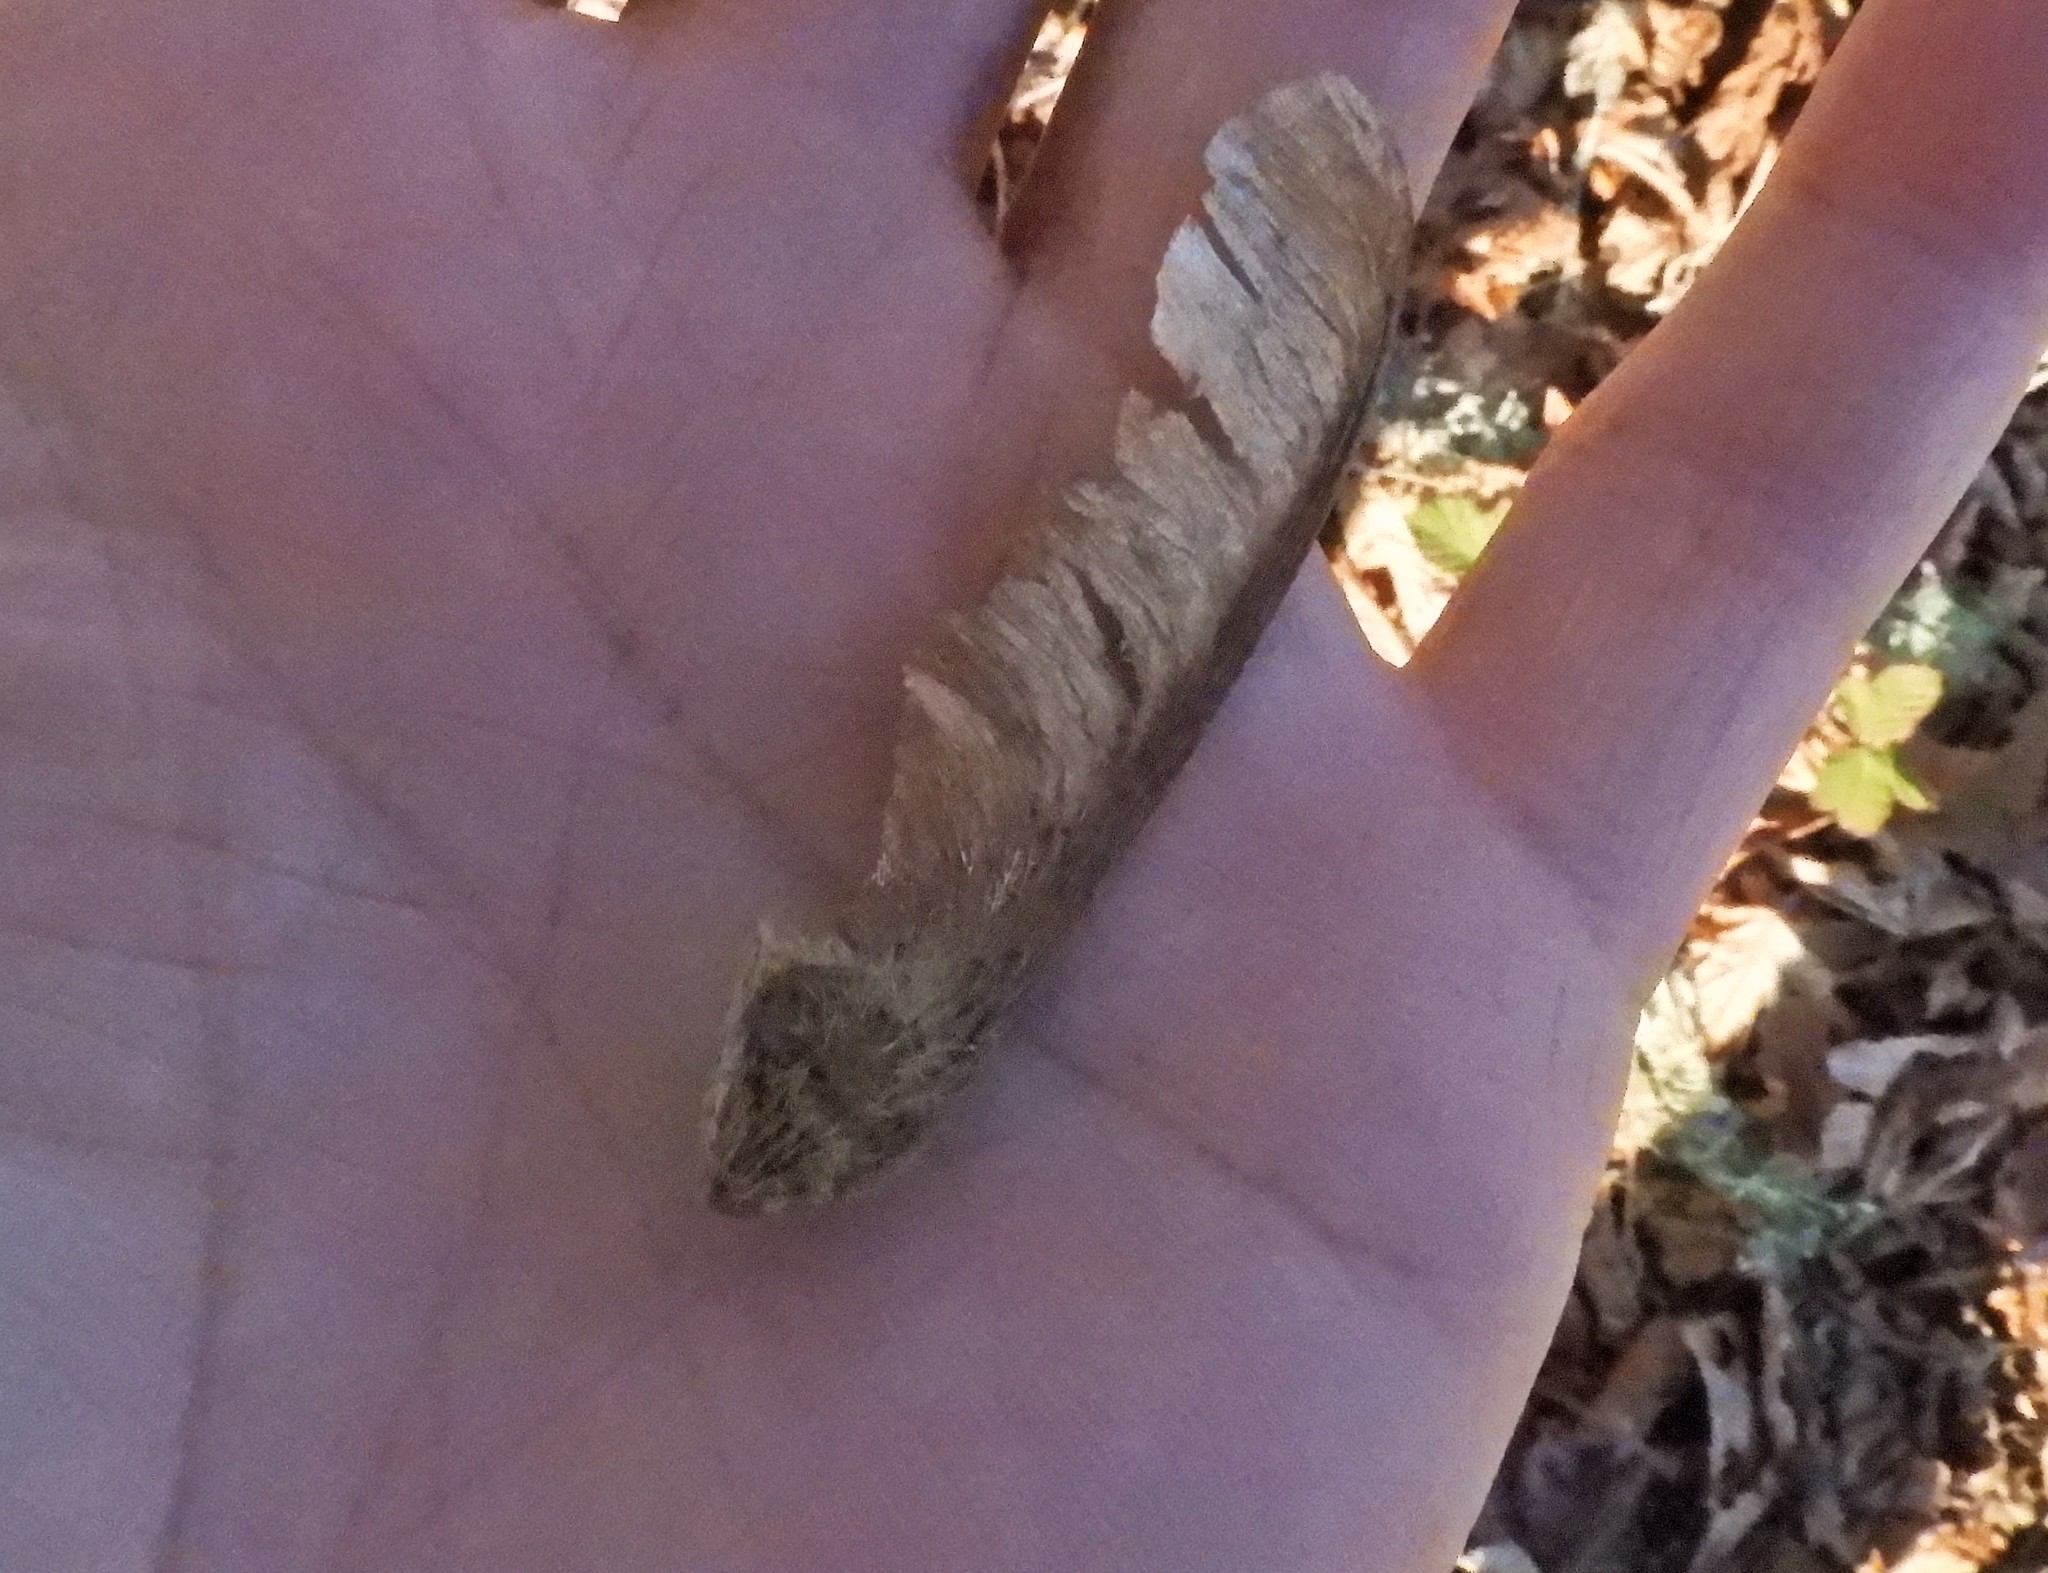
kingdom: Plantae
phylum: Tracheophyta
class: Magnoliopsida
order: Sapindales
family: Sapindaceae
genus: Acer
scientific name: Acer macrophyllum
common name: Oregon maple
